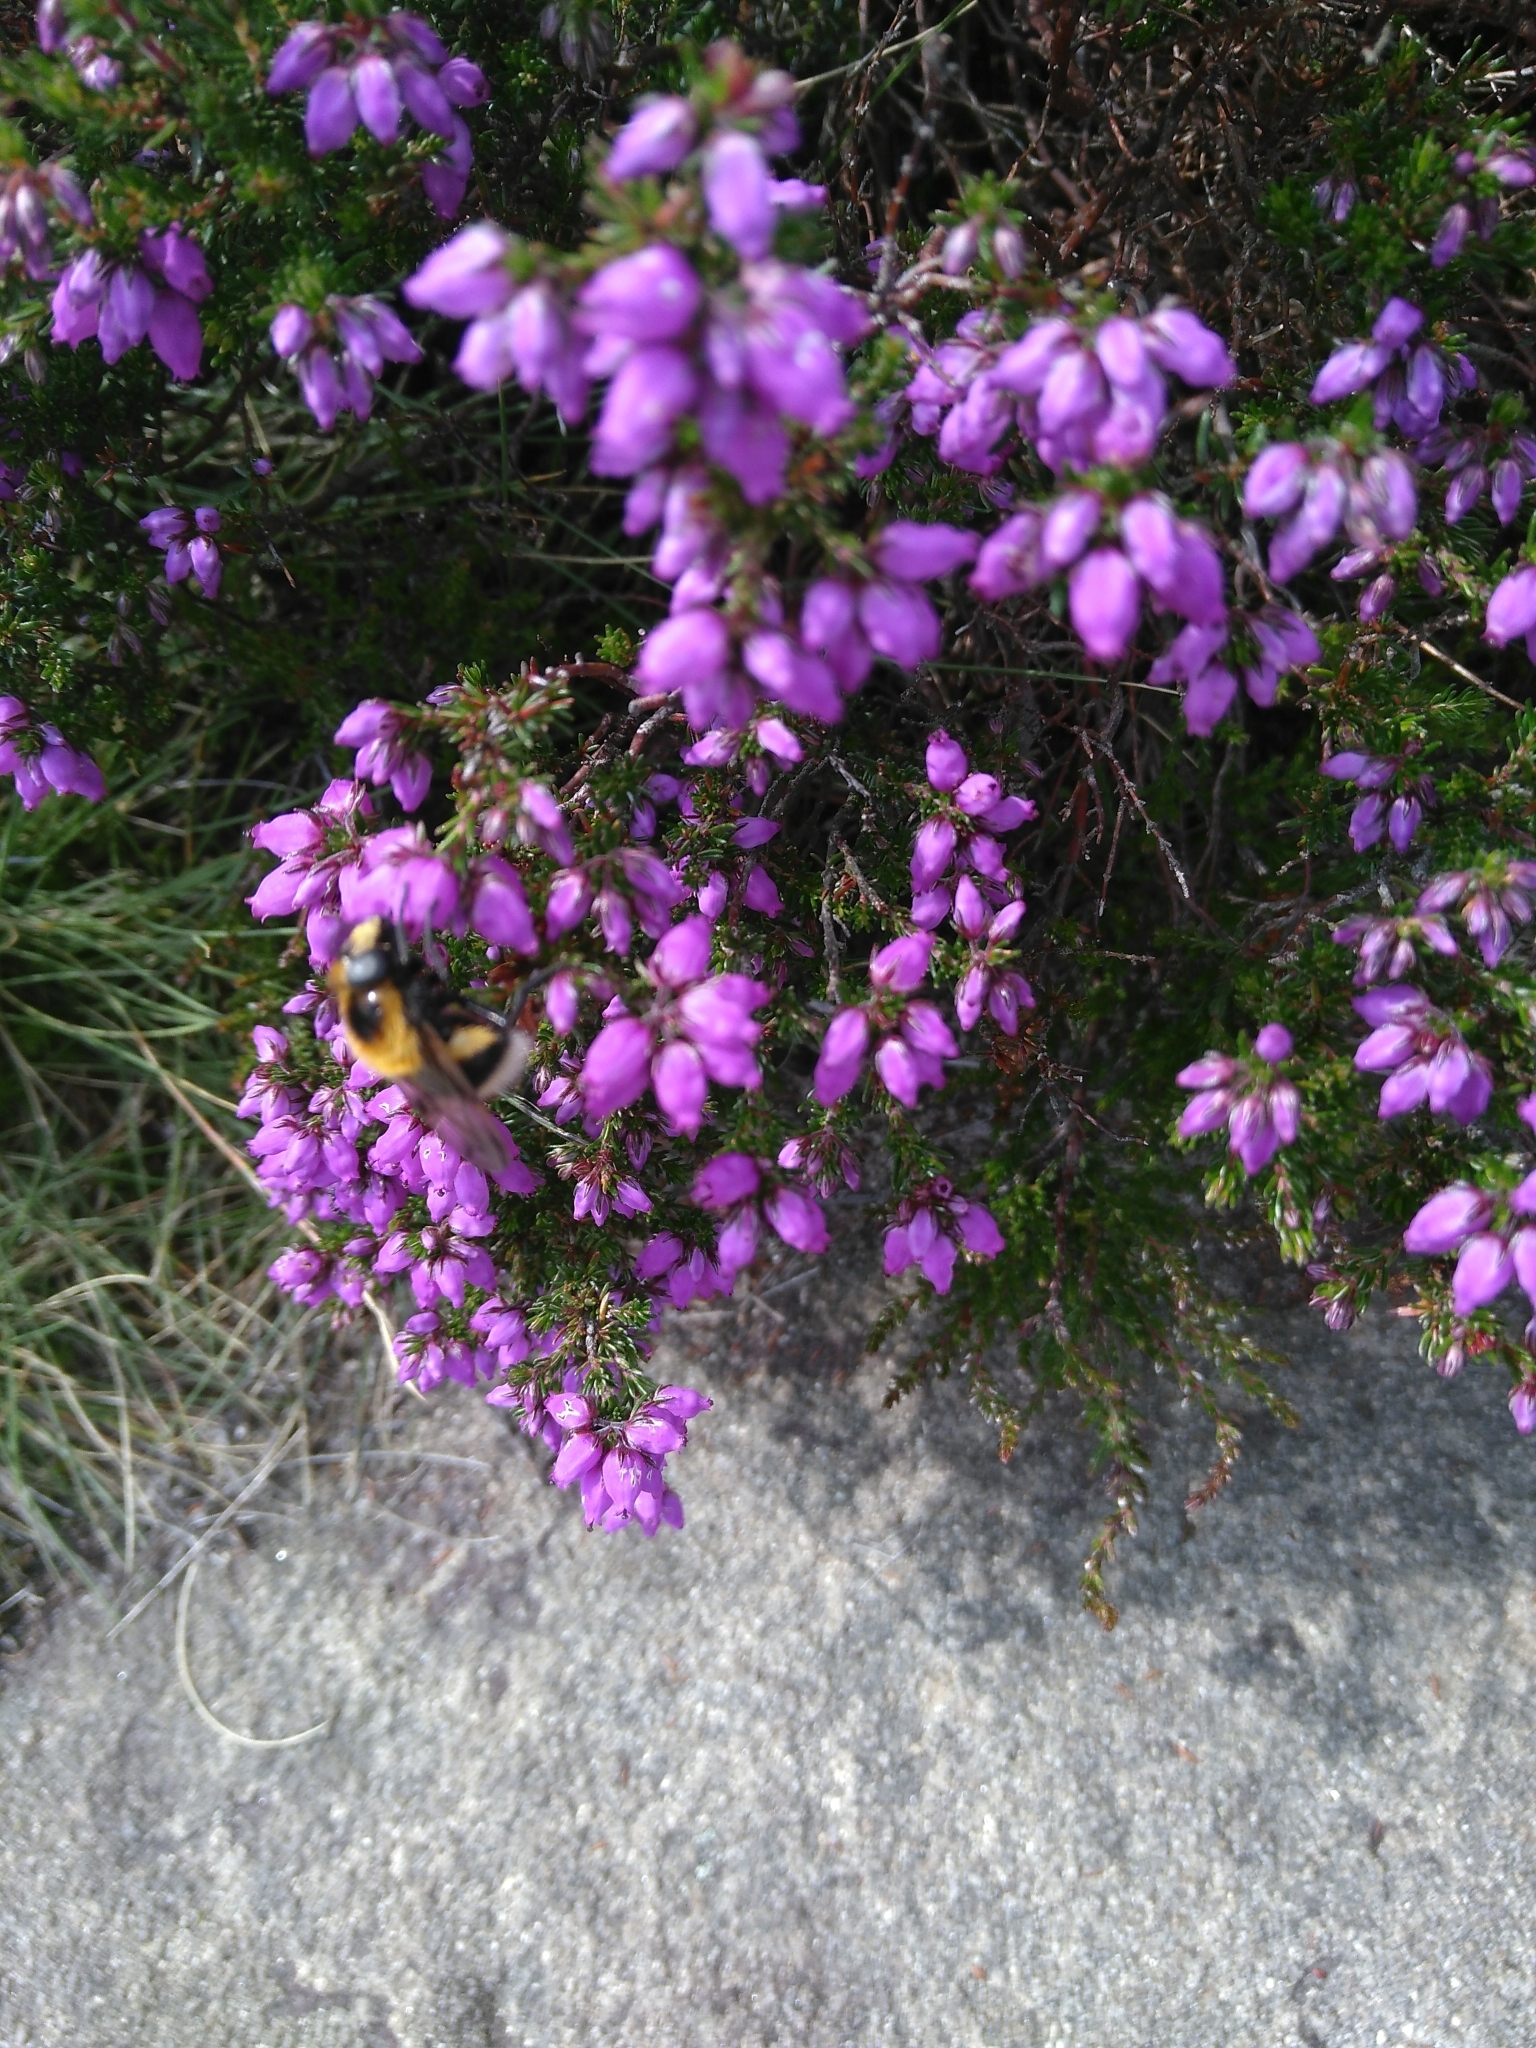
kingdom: Animalia
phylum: Arthropoda
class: Insecta
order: Diptera
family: Syrphidae
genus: Volucella
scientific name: Volucella bombylans
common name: Bumble bee hover fly
